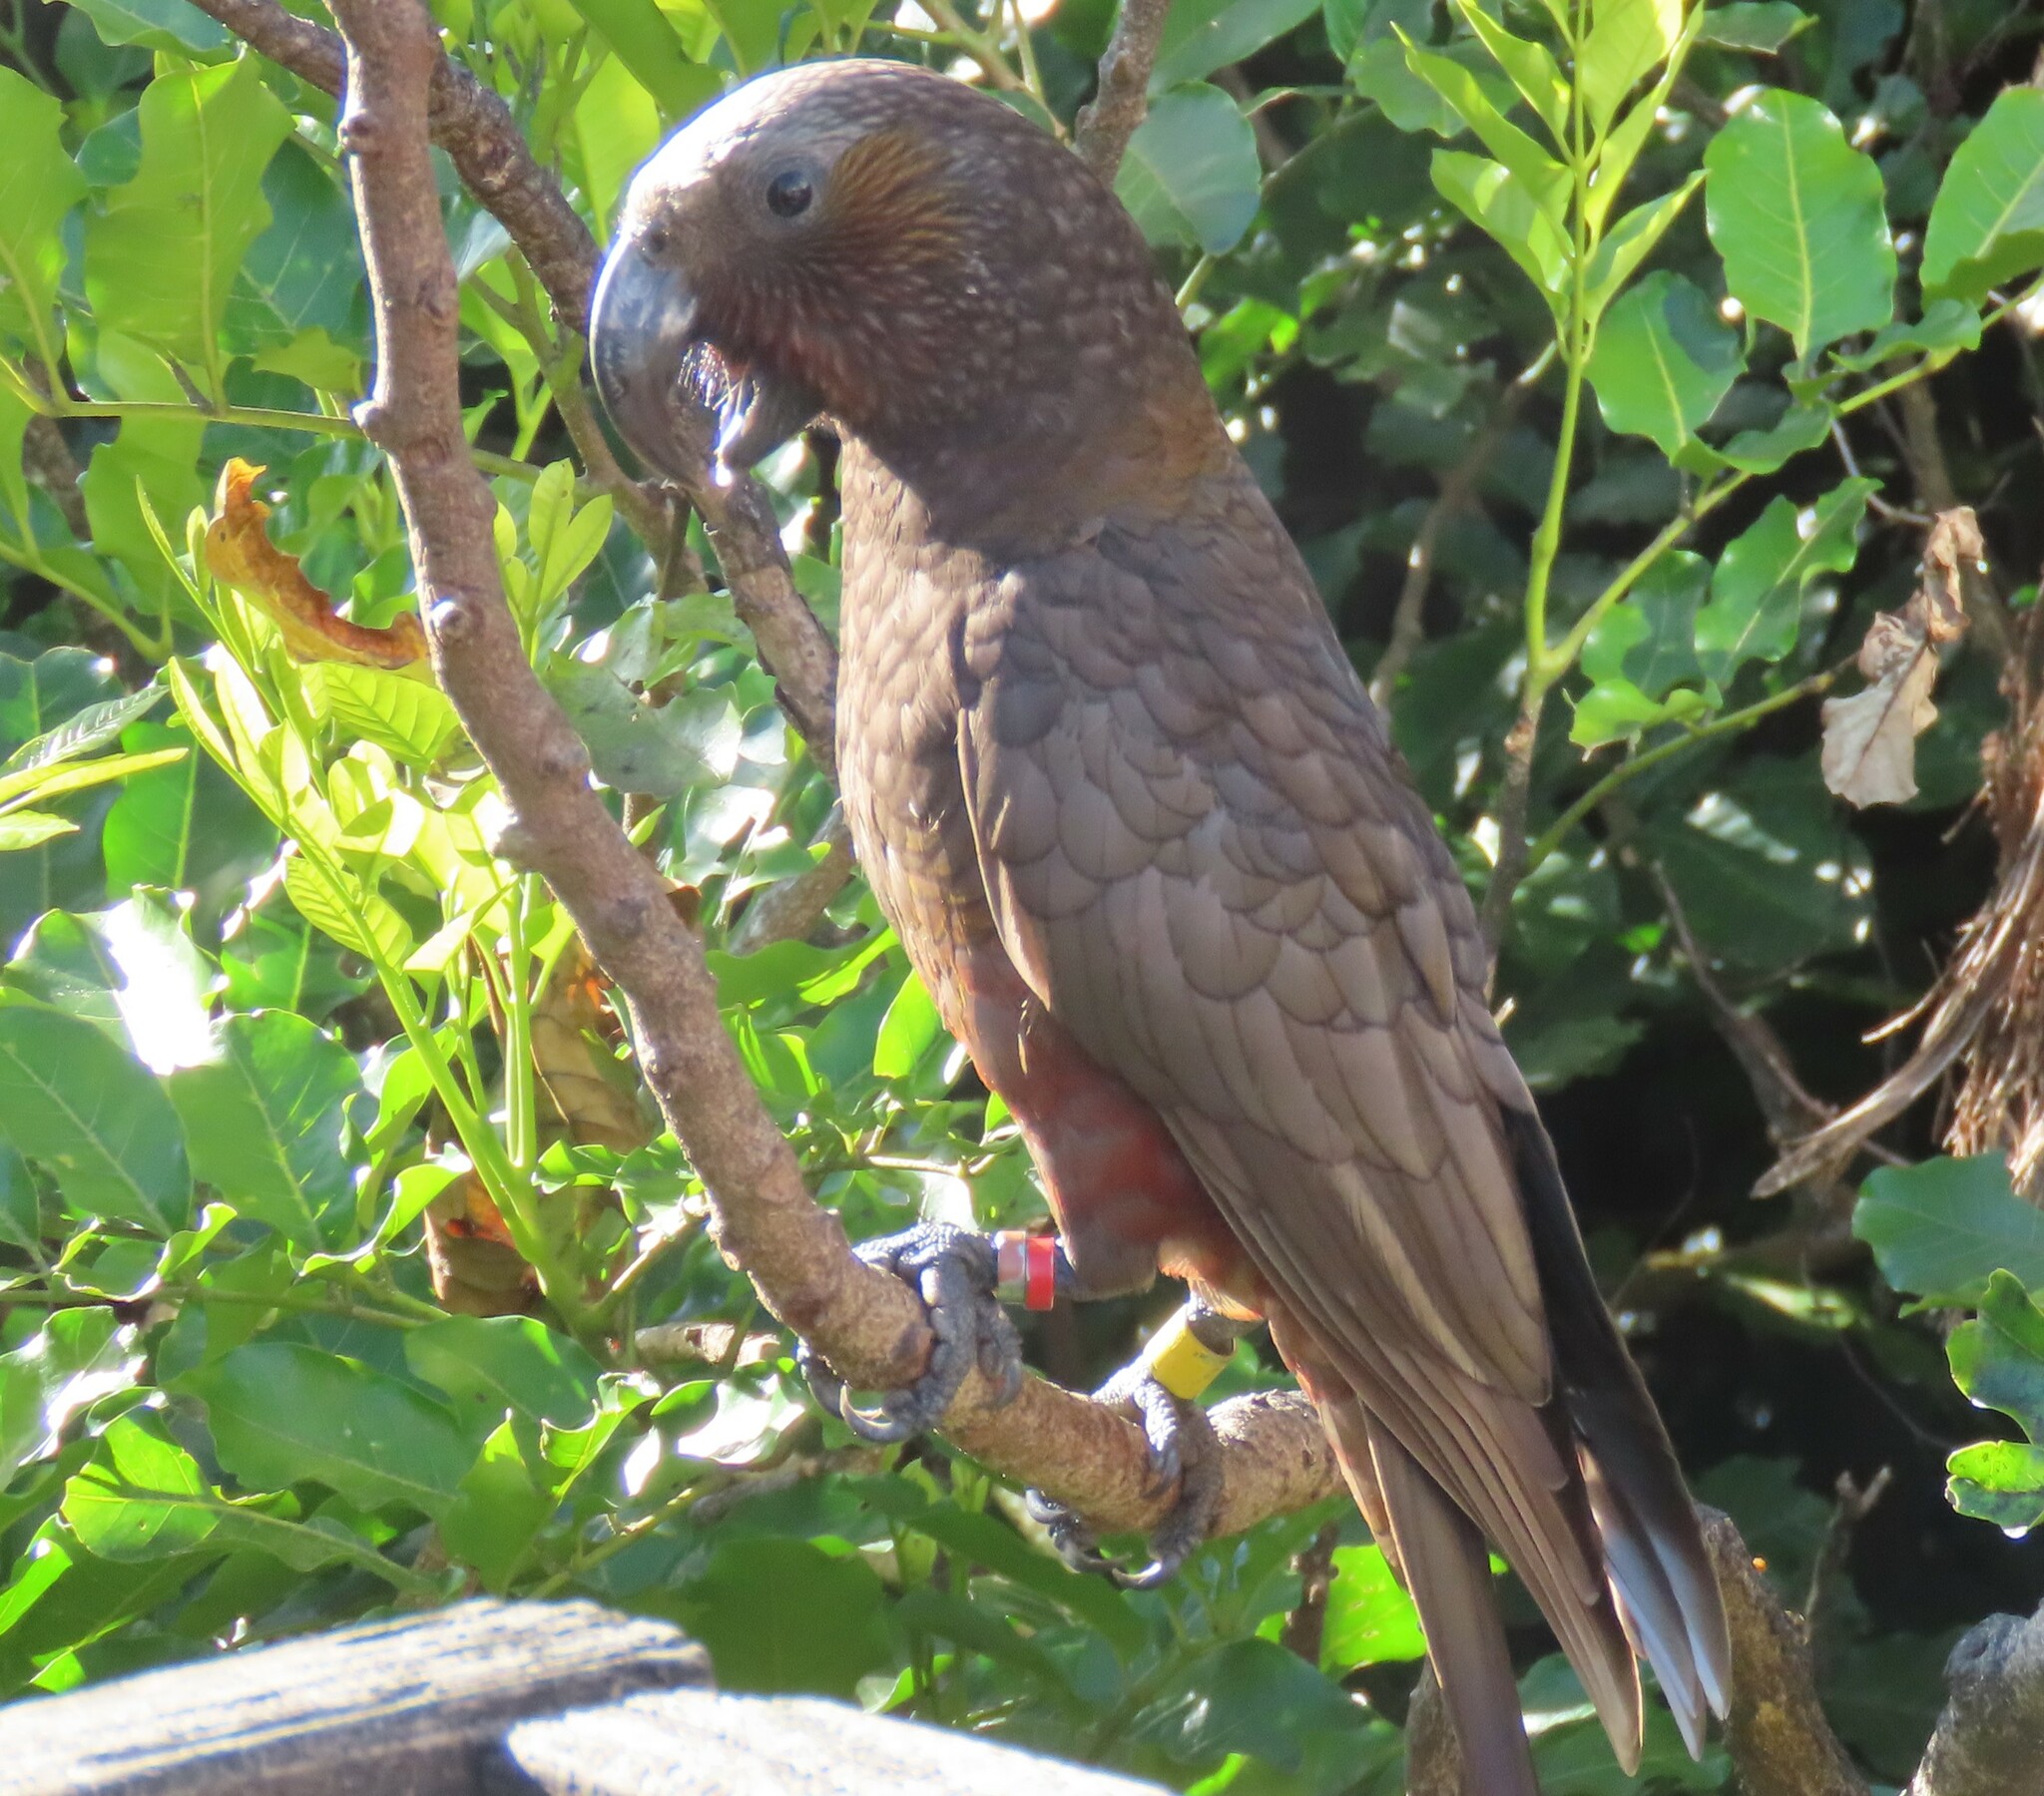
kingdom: Animalia
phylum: Chordata
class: Aves
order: Psittaciformes
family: Psittacidae
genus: Nestor
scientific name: Nestor meridionalis
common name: New zealand kaka
